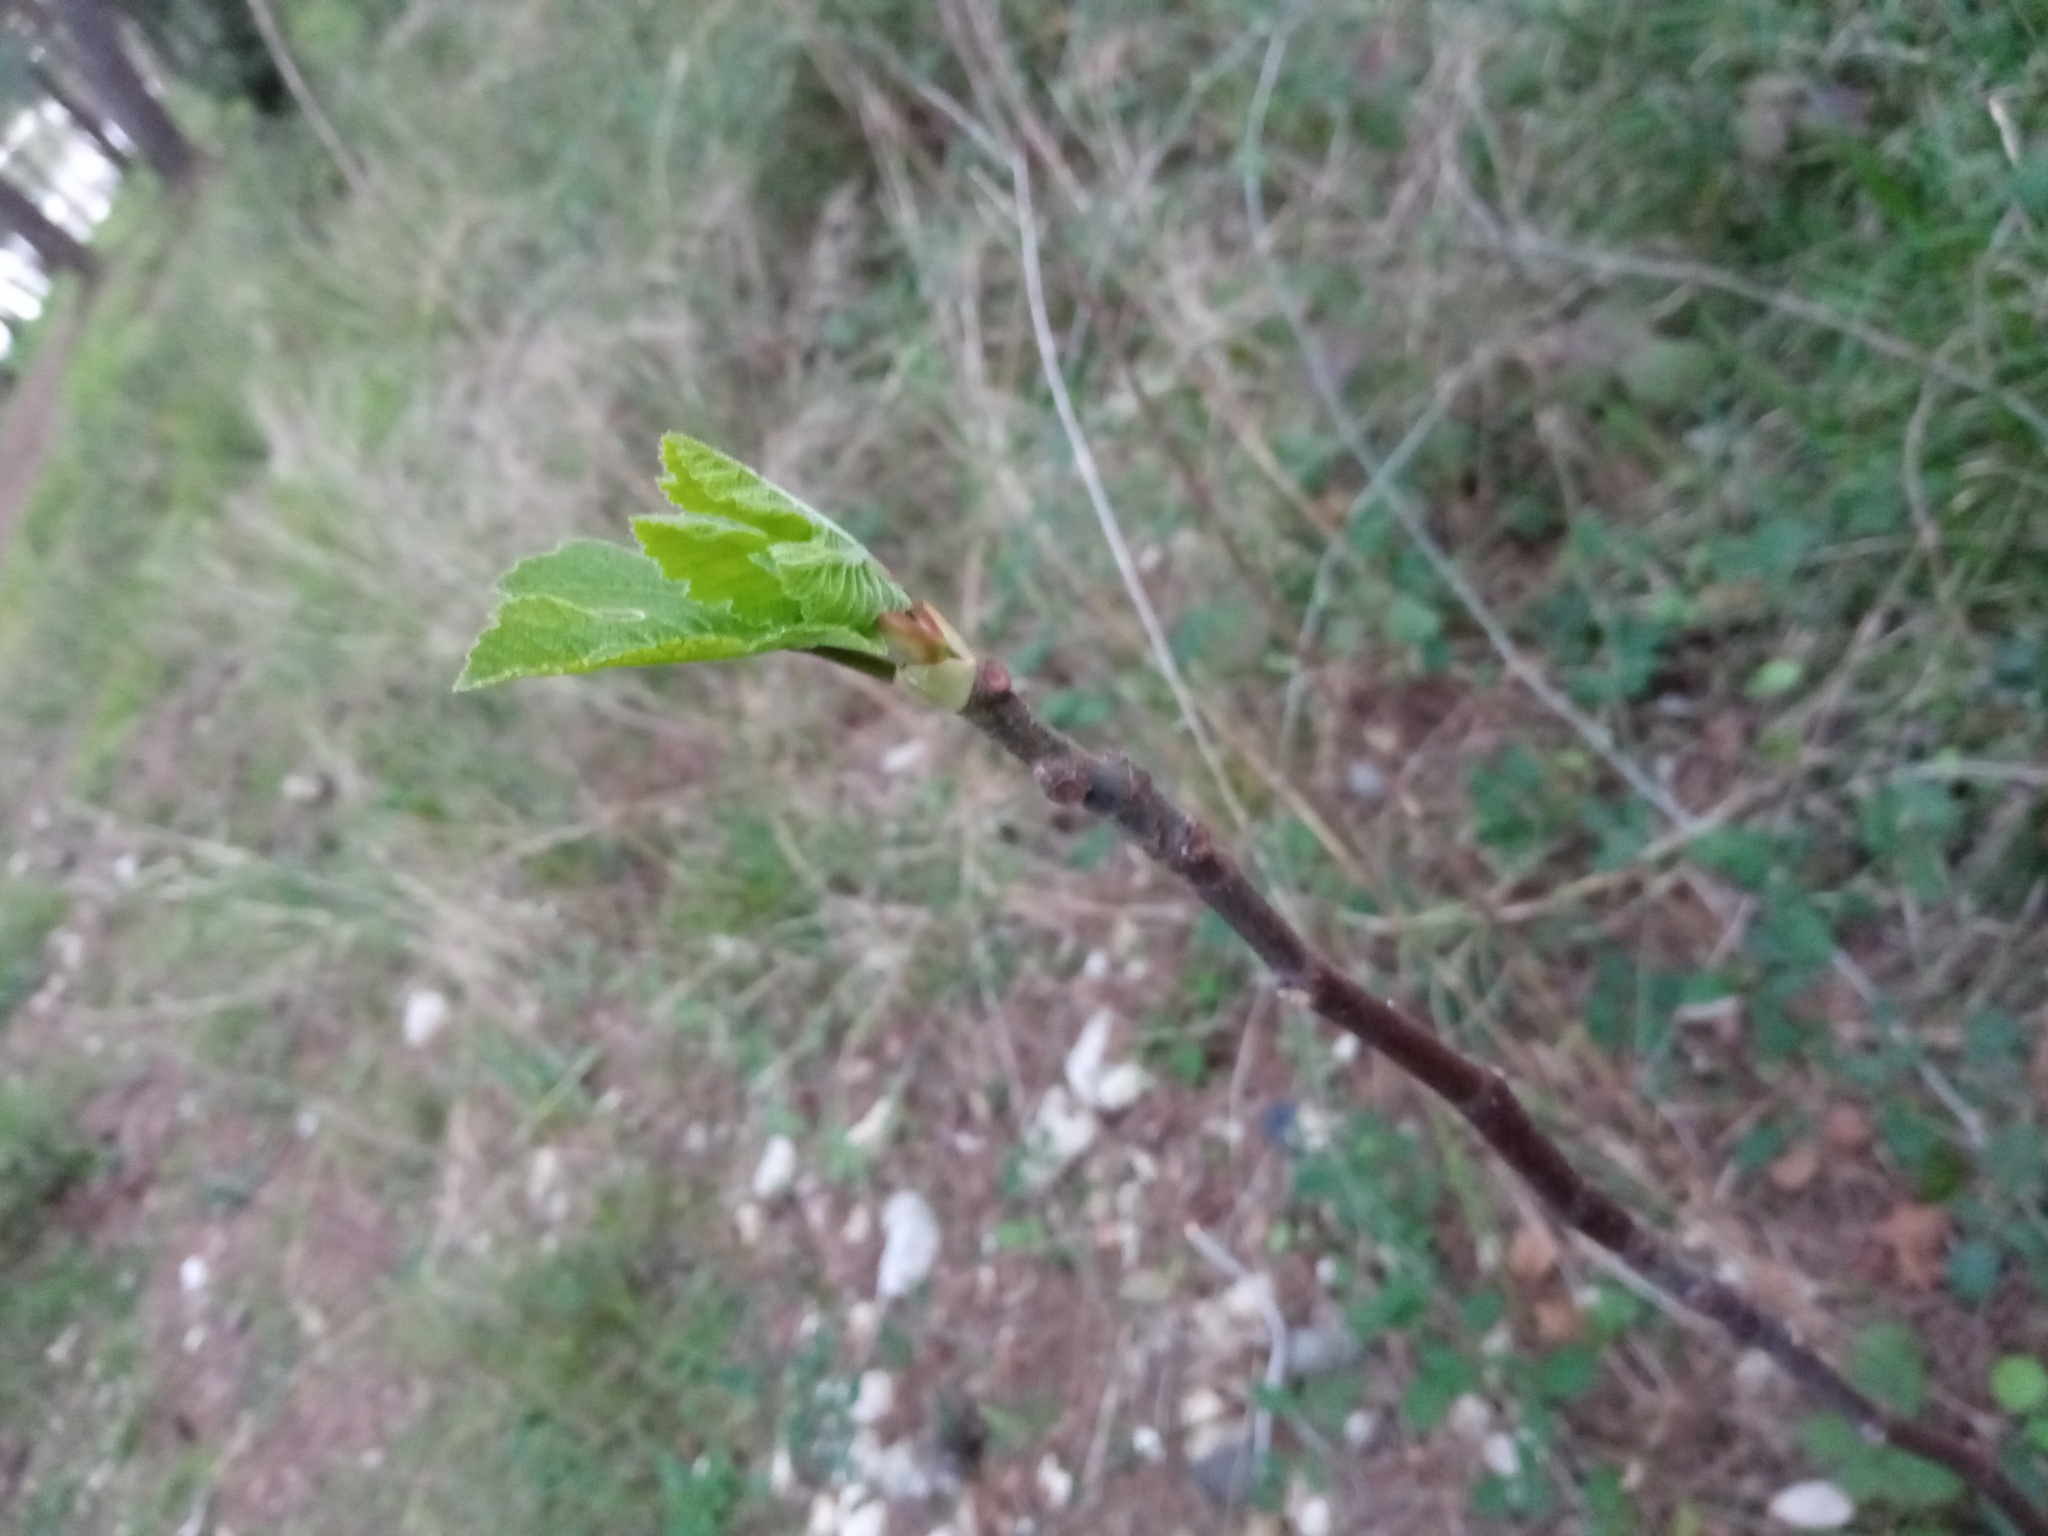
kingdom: Plantae
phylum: Tracheophyta
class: Magnoliopsida
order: Rosales
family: Moraceae
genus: Ficus
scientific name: Ficus carica
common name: Fig
